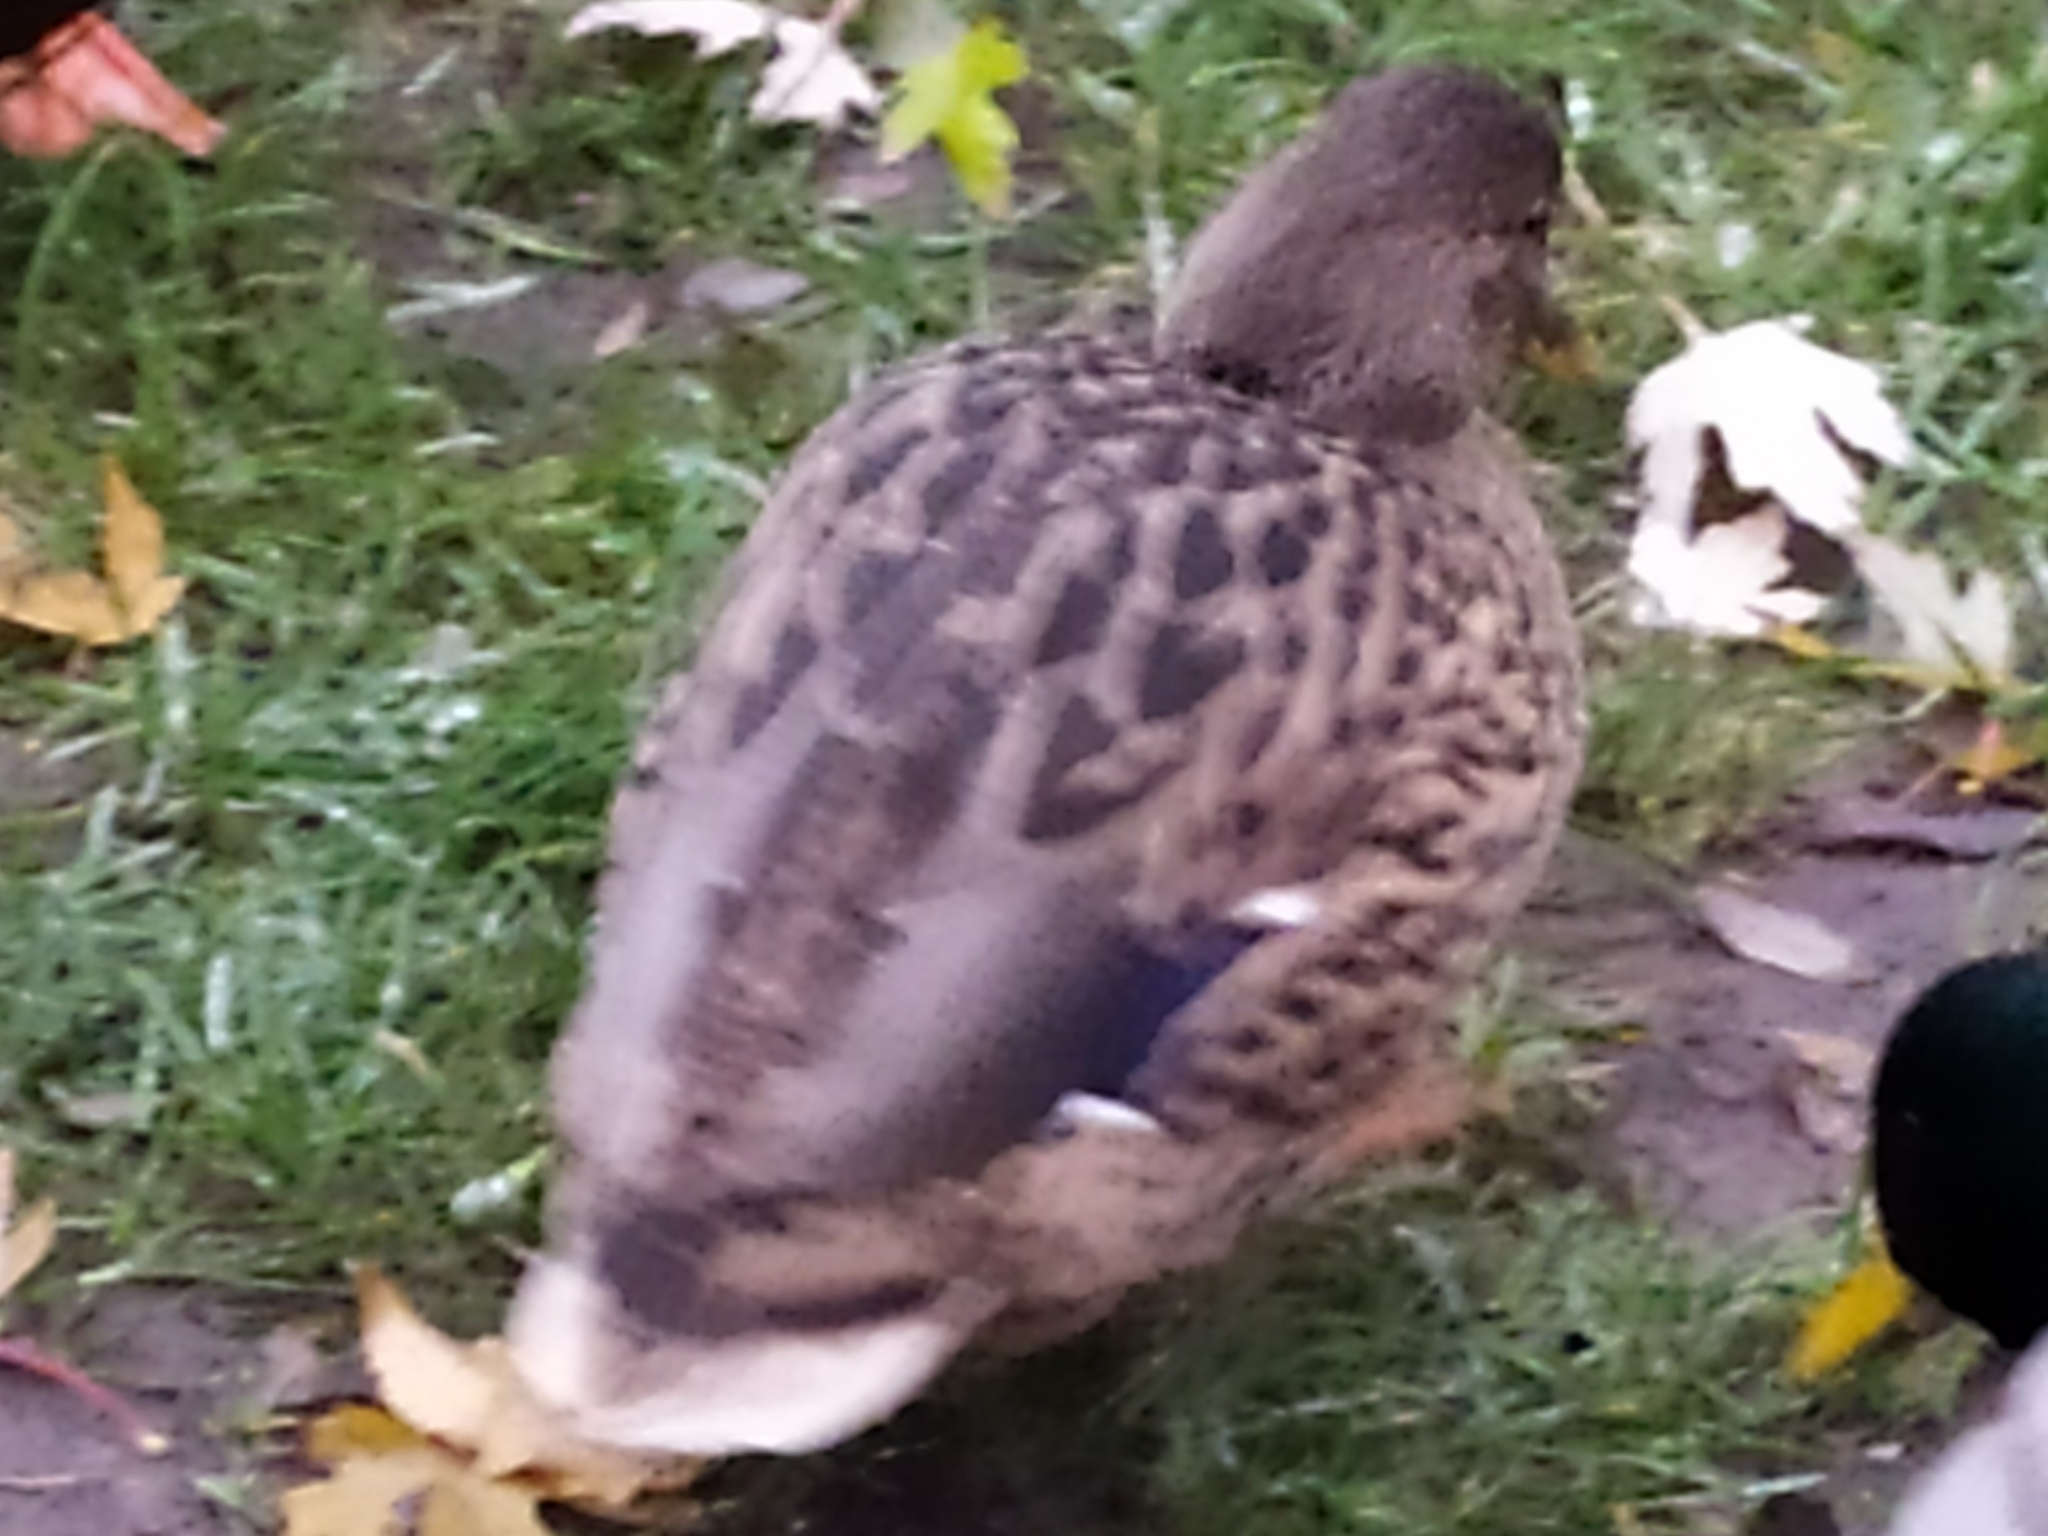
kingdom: Animalia
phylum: Chordata
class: Aves
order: Anseriformes
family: Anatidae
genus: Anas
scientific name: Anas platyrhynchos
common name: Mallard
